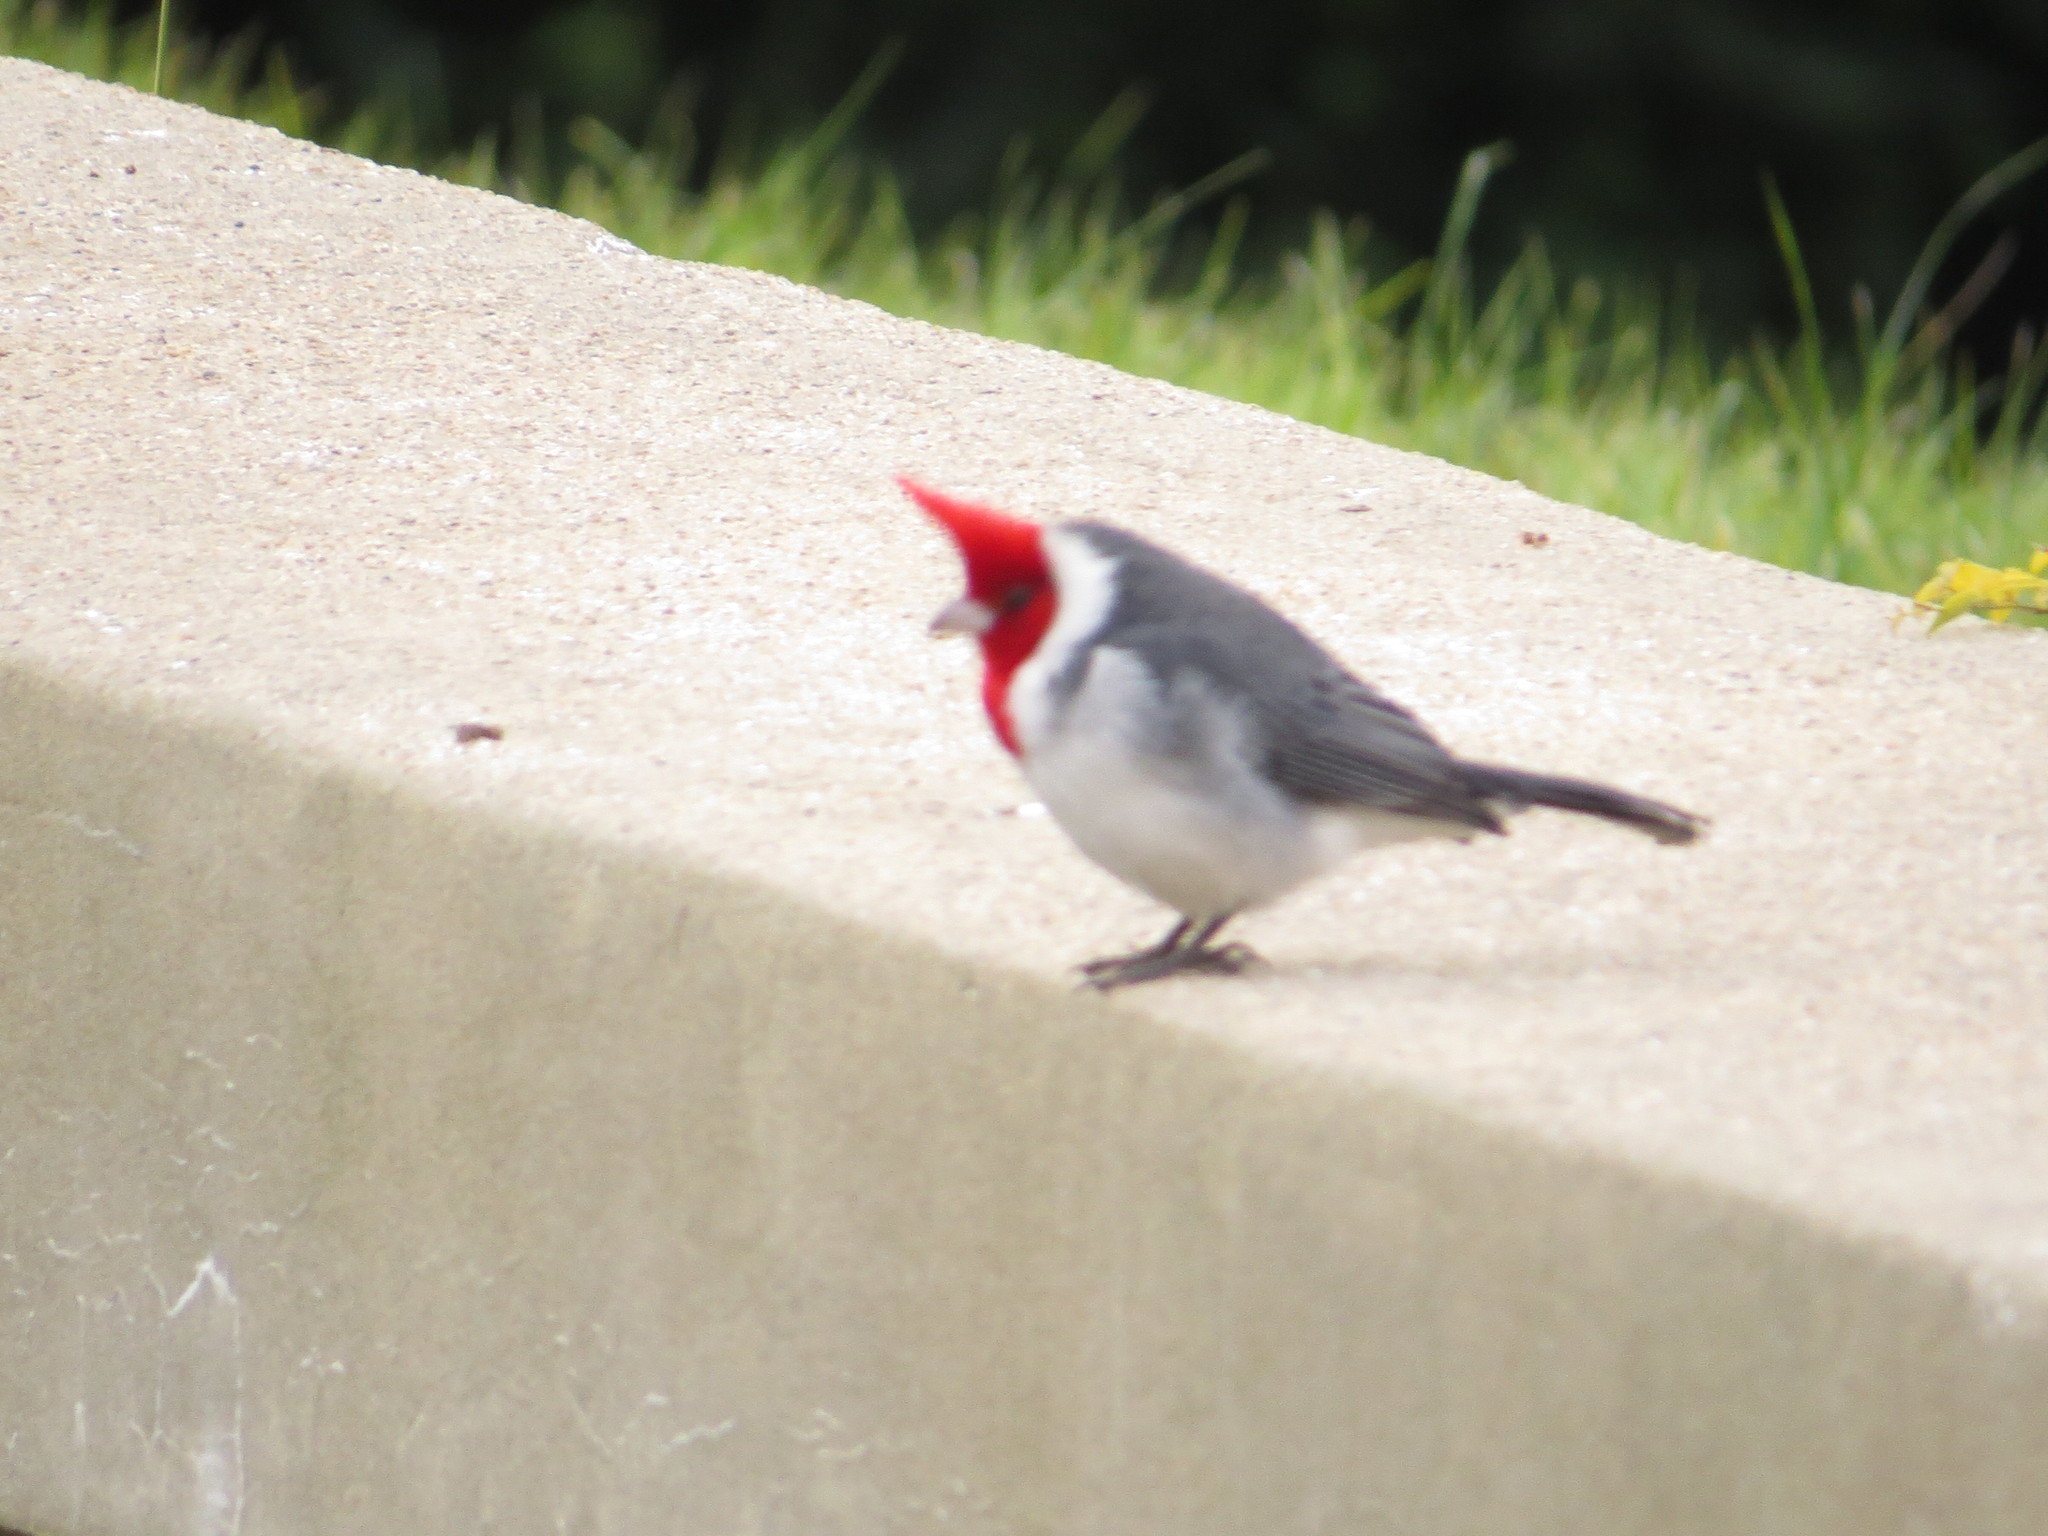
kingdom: Animalia
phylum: Chordata
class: Aves
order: Passeriformes
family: Thraupidae
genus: Paroaria
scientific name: Paroaria coronata
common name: Red-crested cardinal
